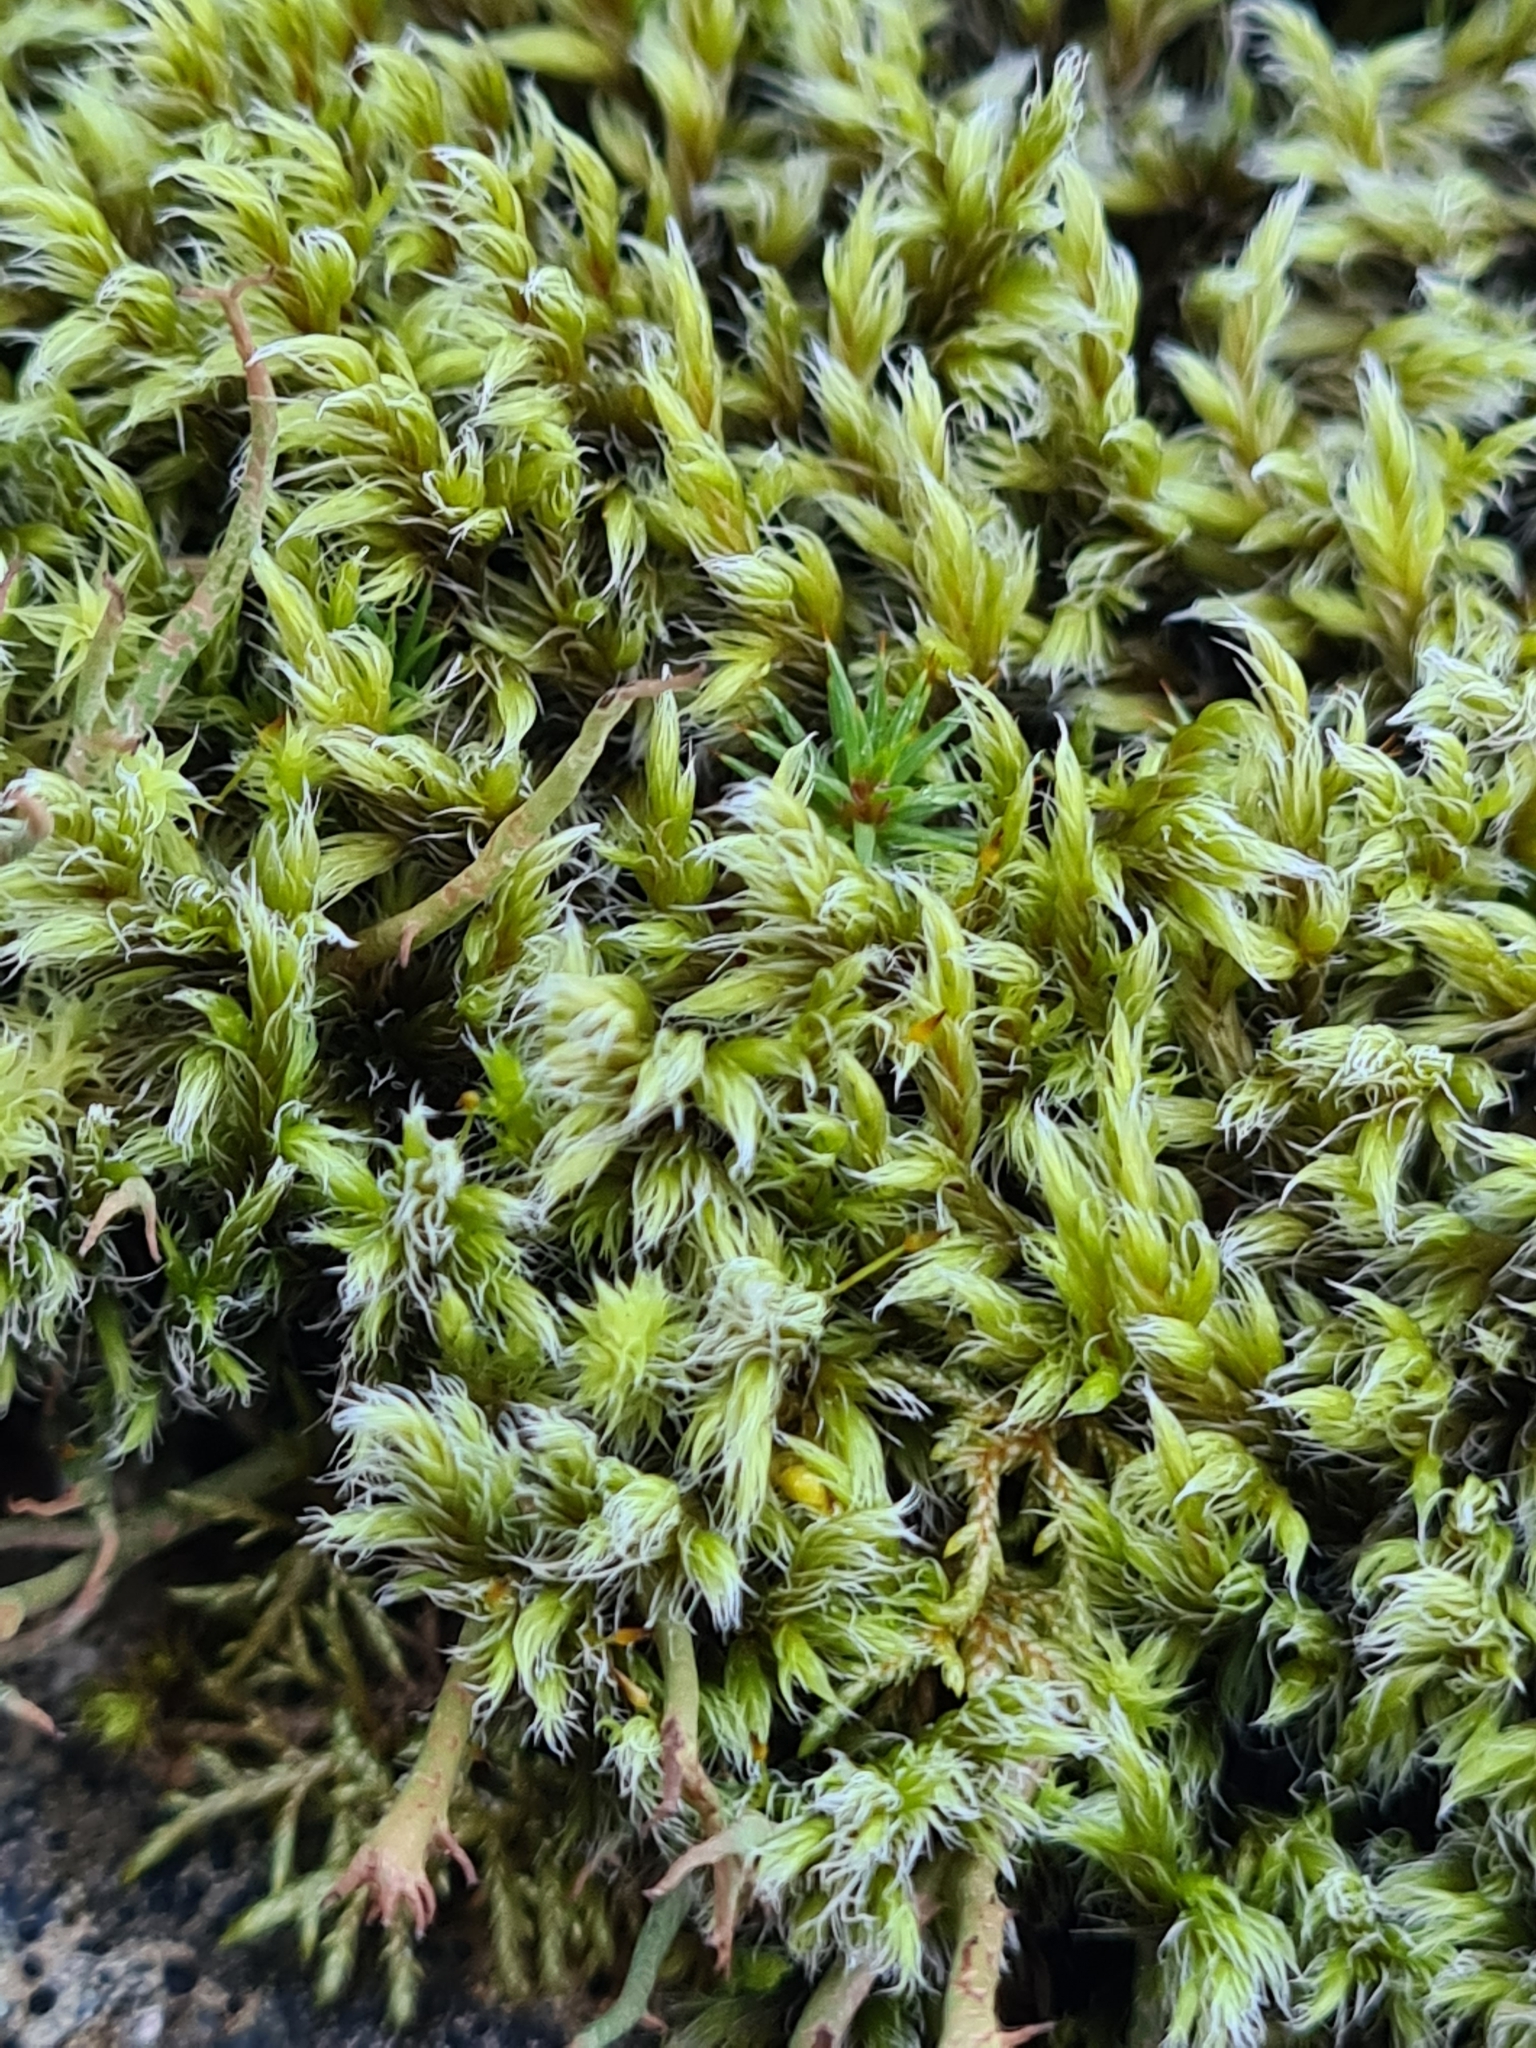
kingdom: Plantae
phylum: Bryophyta
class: Bryopsida
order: Grimmiales
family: Grimmiaceae
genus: Racomitrium
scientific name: Racomitrium lanuginosum
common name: Hoary rock moss
